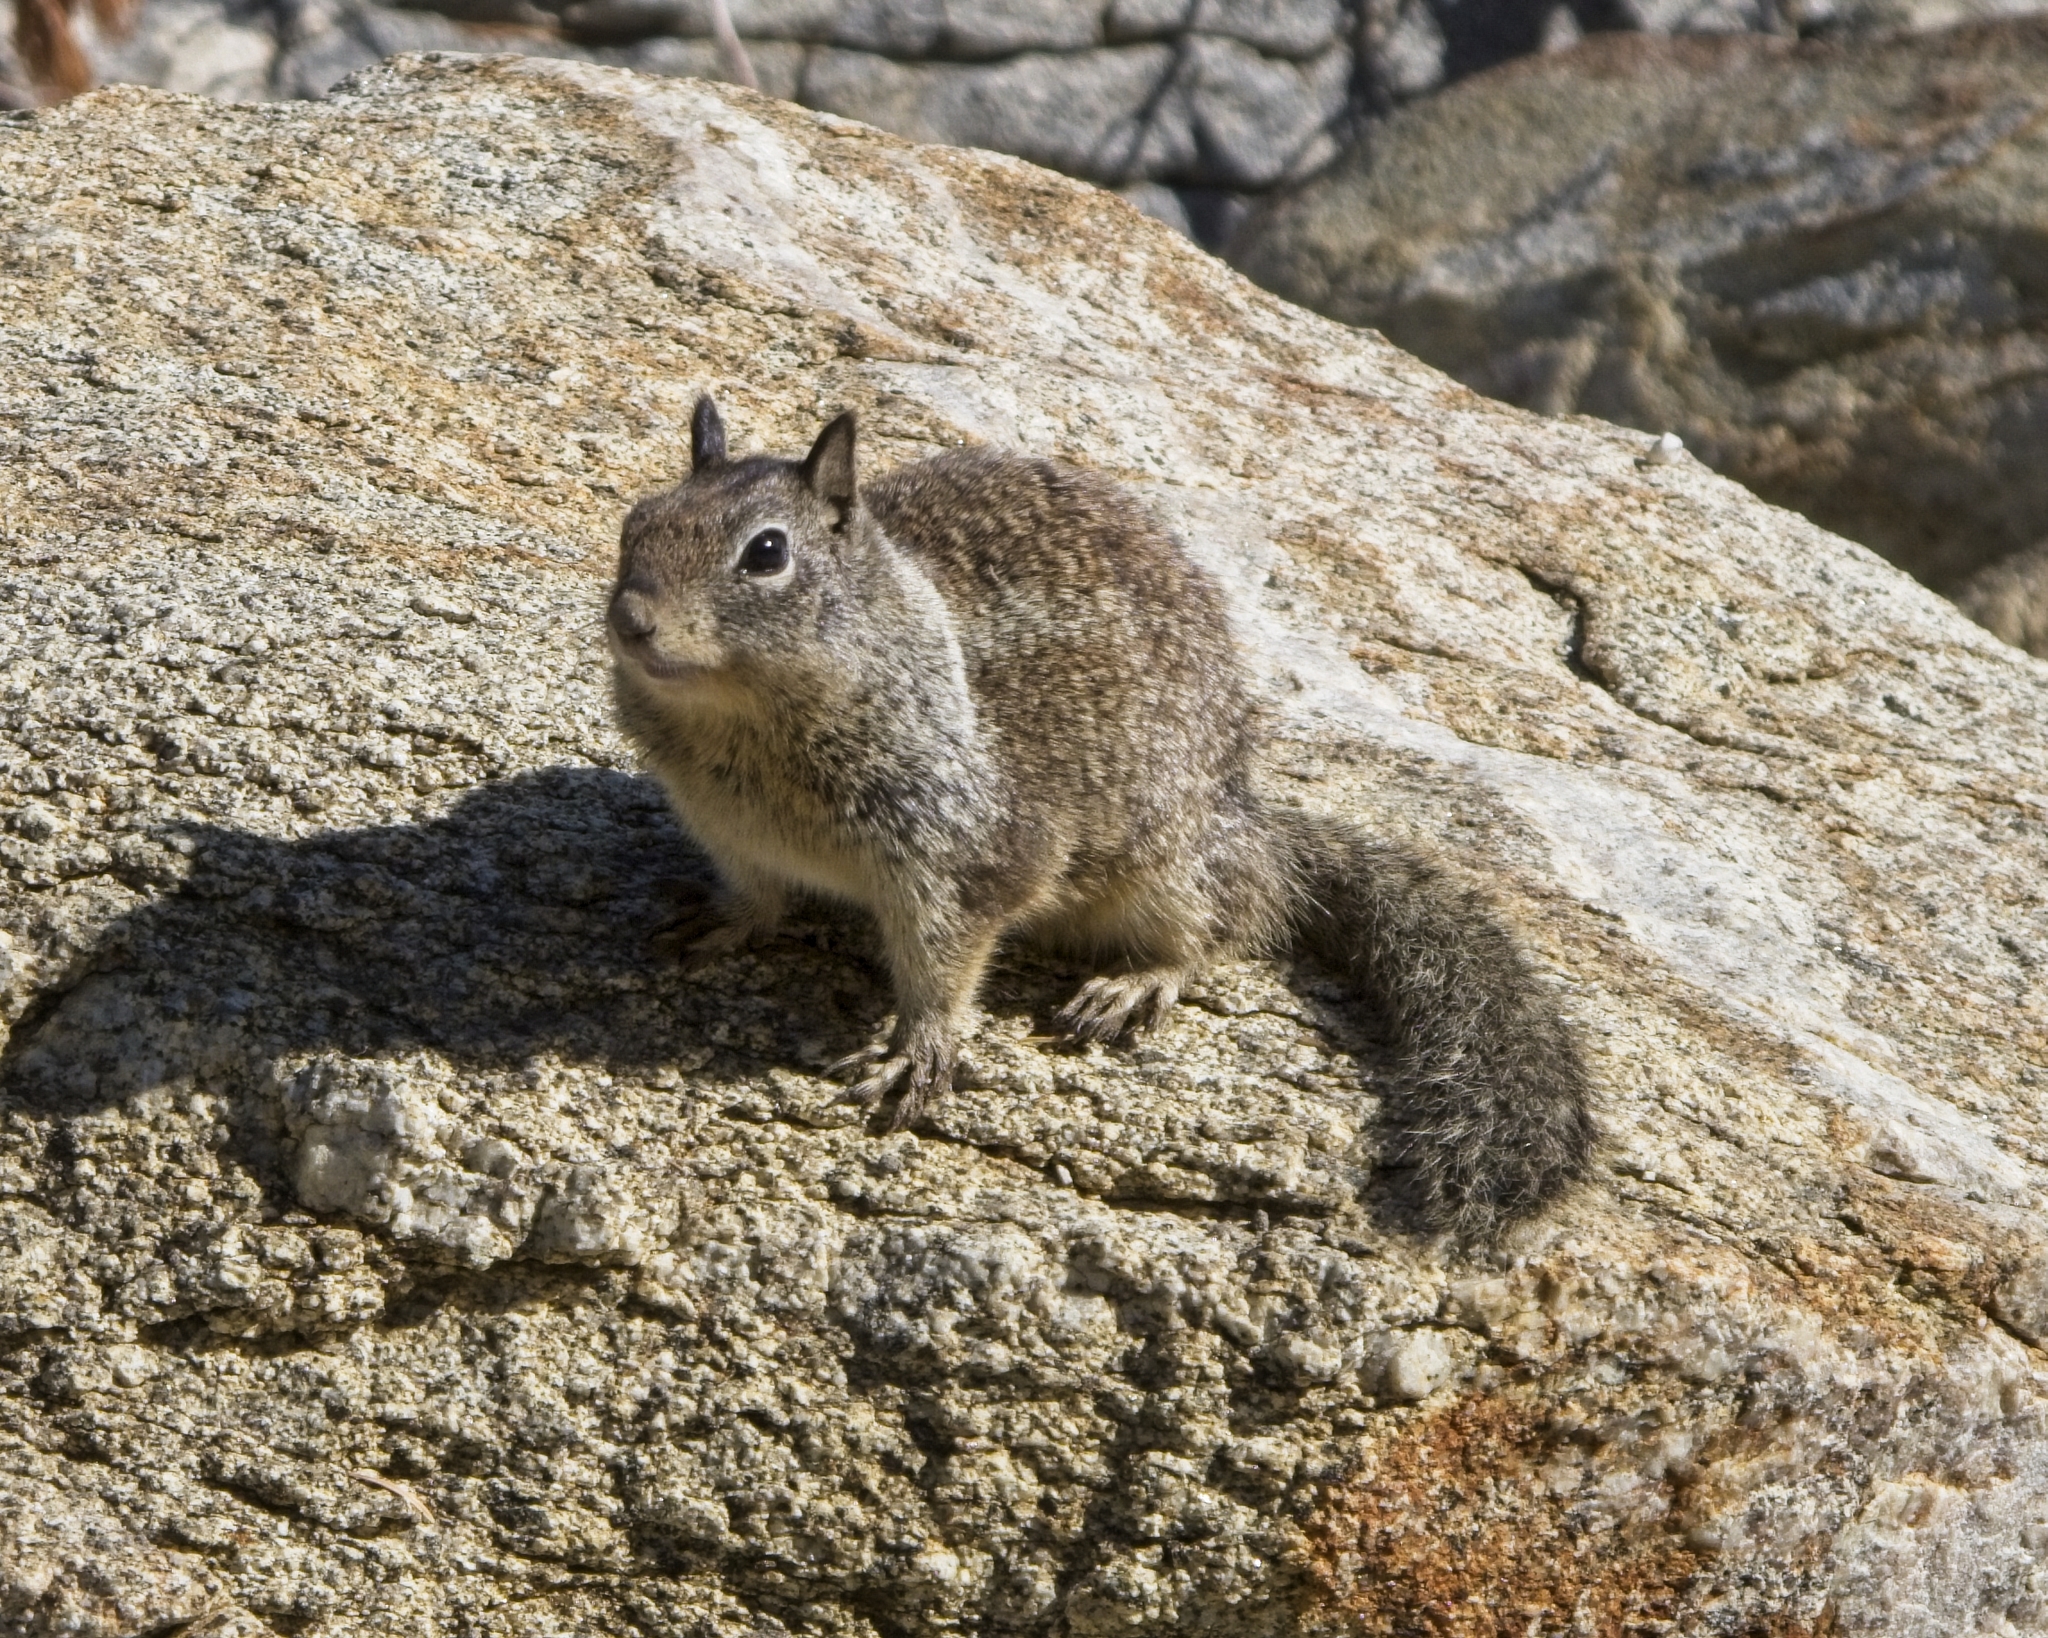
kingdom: Animalia
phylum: Chordata
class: Mammalia
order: Rodentia
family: Sciuridae
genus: Otospermophilus
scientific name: Otospermophilus beecheyi
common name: California ground squirrel
